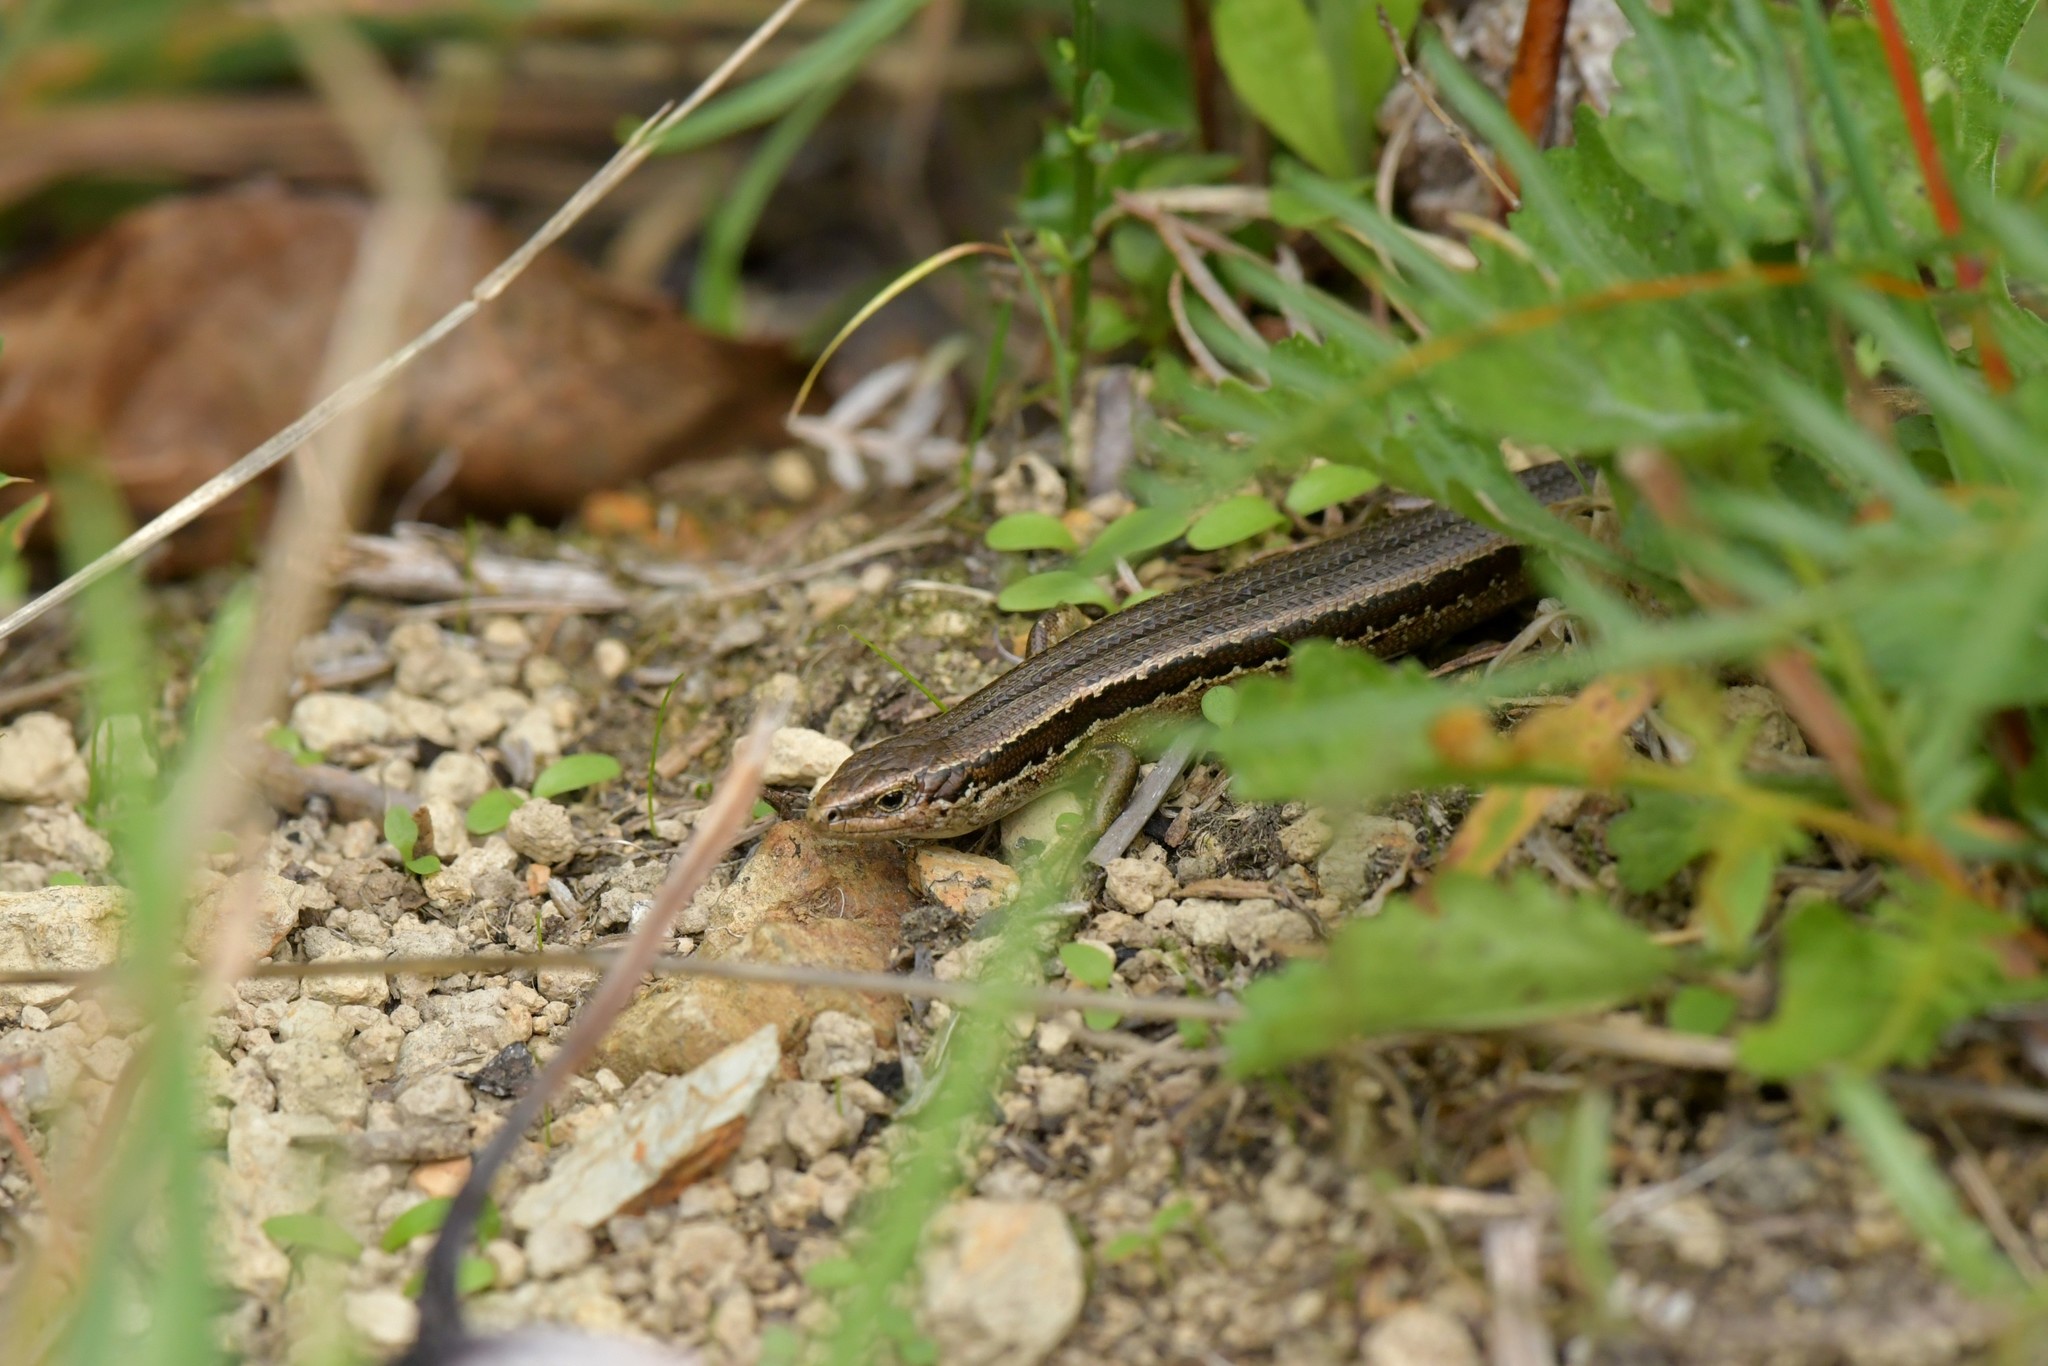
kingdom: Animalia
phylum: Chordata
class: Squamata
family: Scincidae
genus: Oligosoma
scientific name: Oligosoma polychroma
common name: Common new zealand skink
